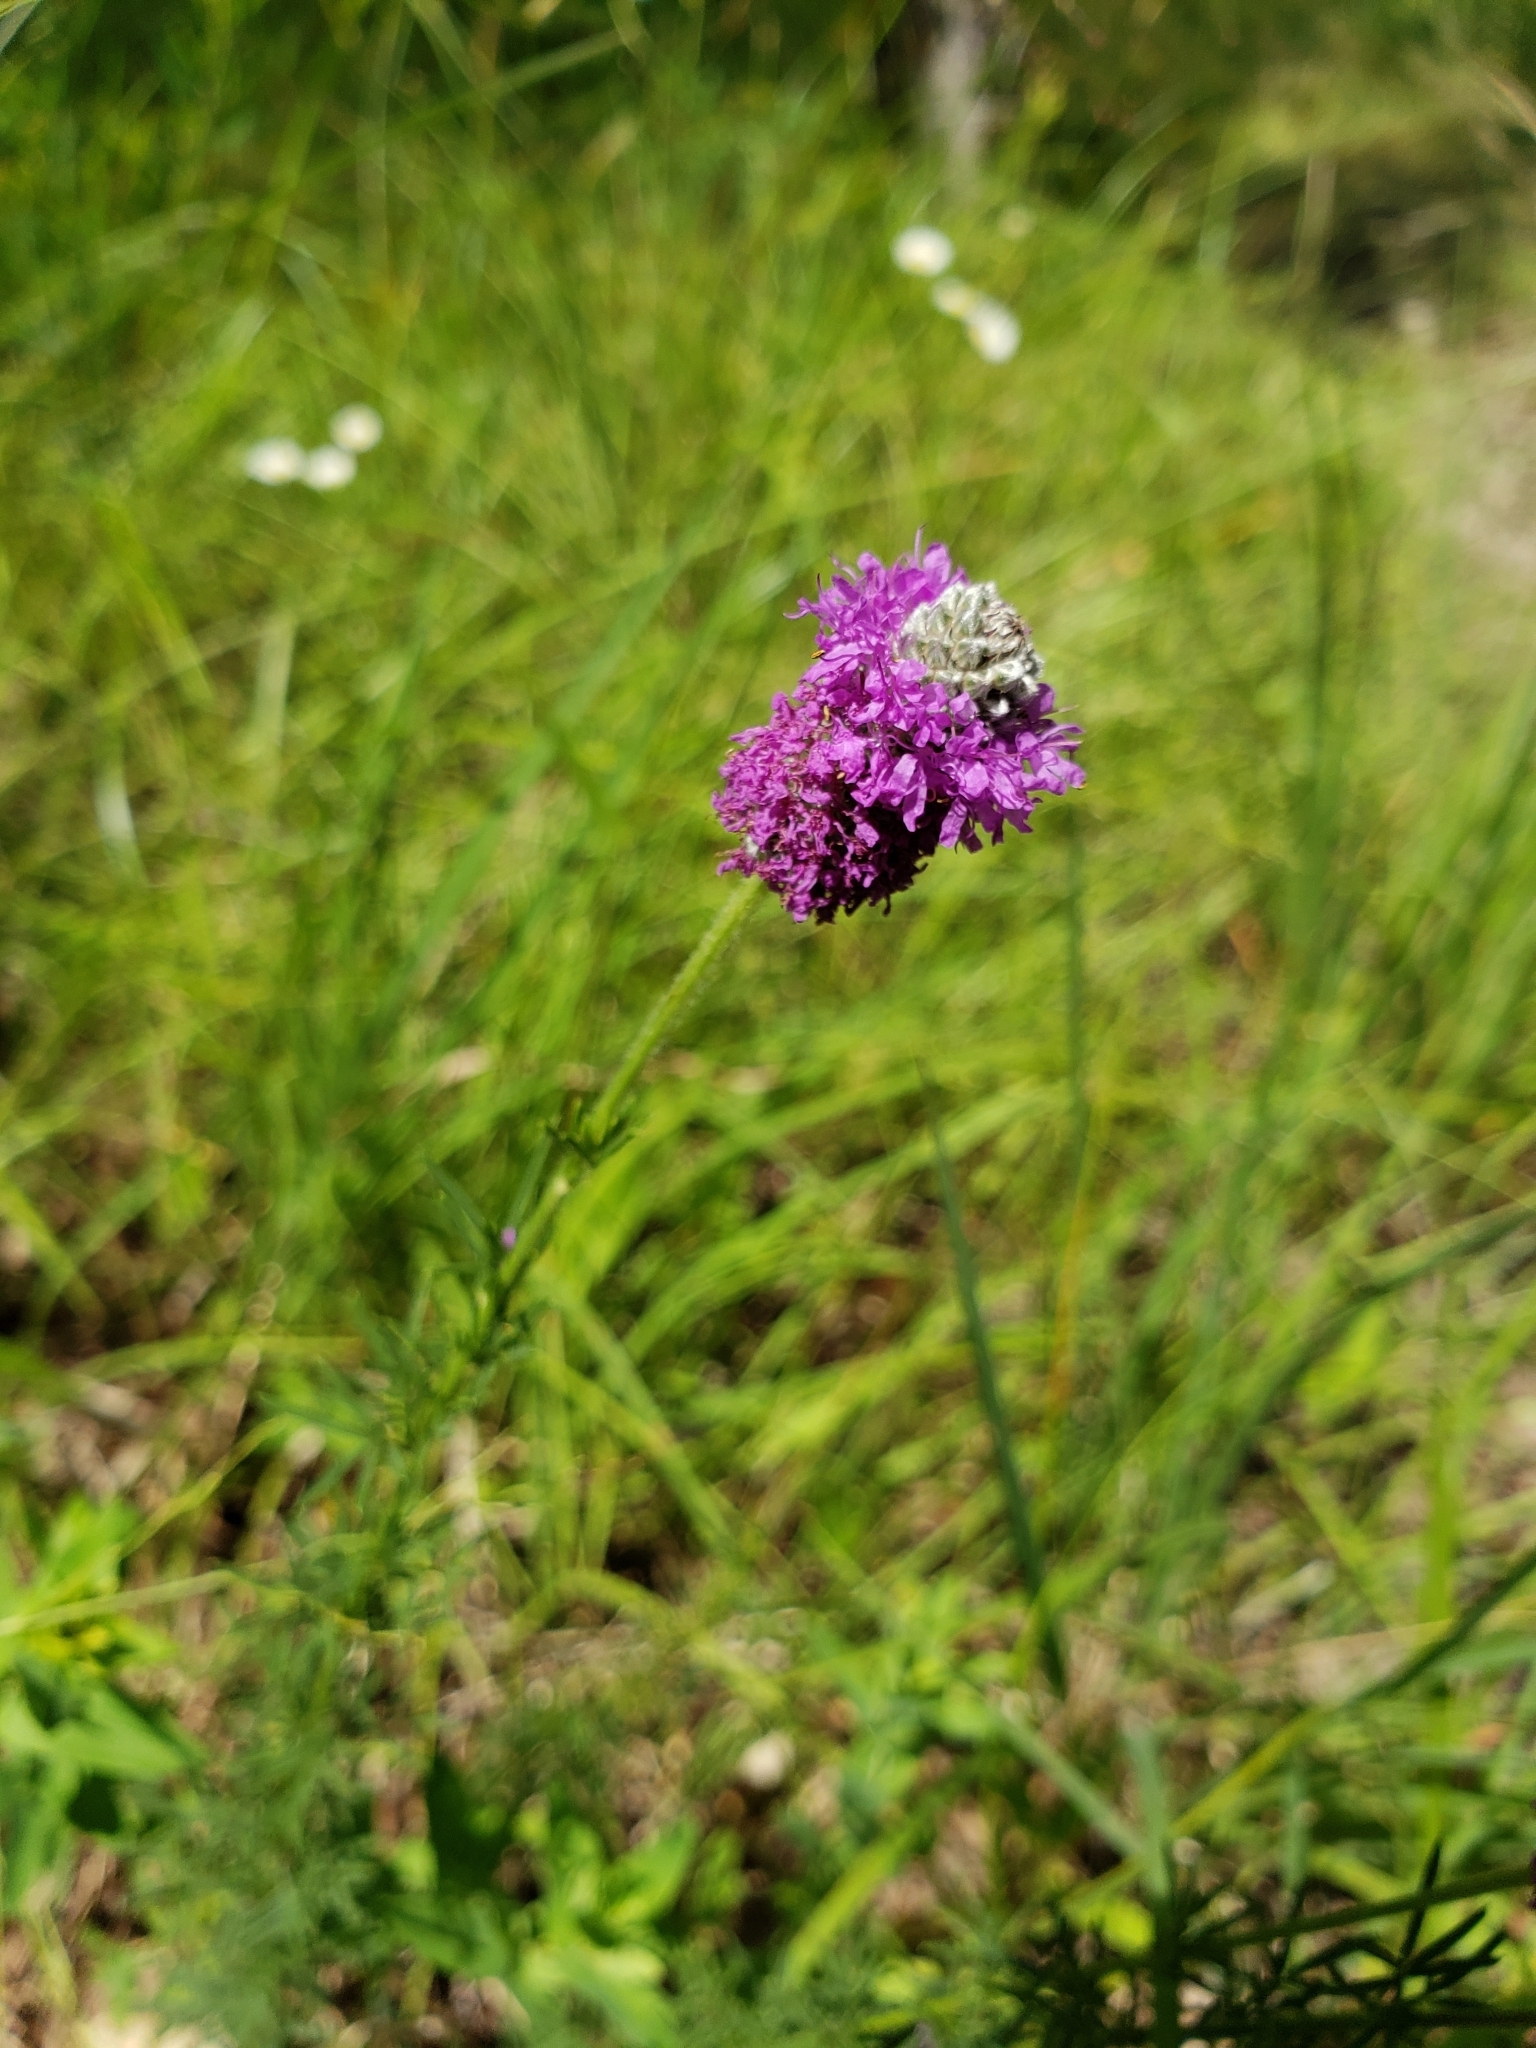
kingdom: Plantae
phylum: Tracheophyta
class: Magnoliopsida
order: Fabales
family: Fabaceae
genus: Dalea
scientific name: Dalea purpurea
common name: Purple prairie-clover
